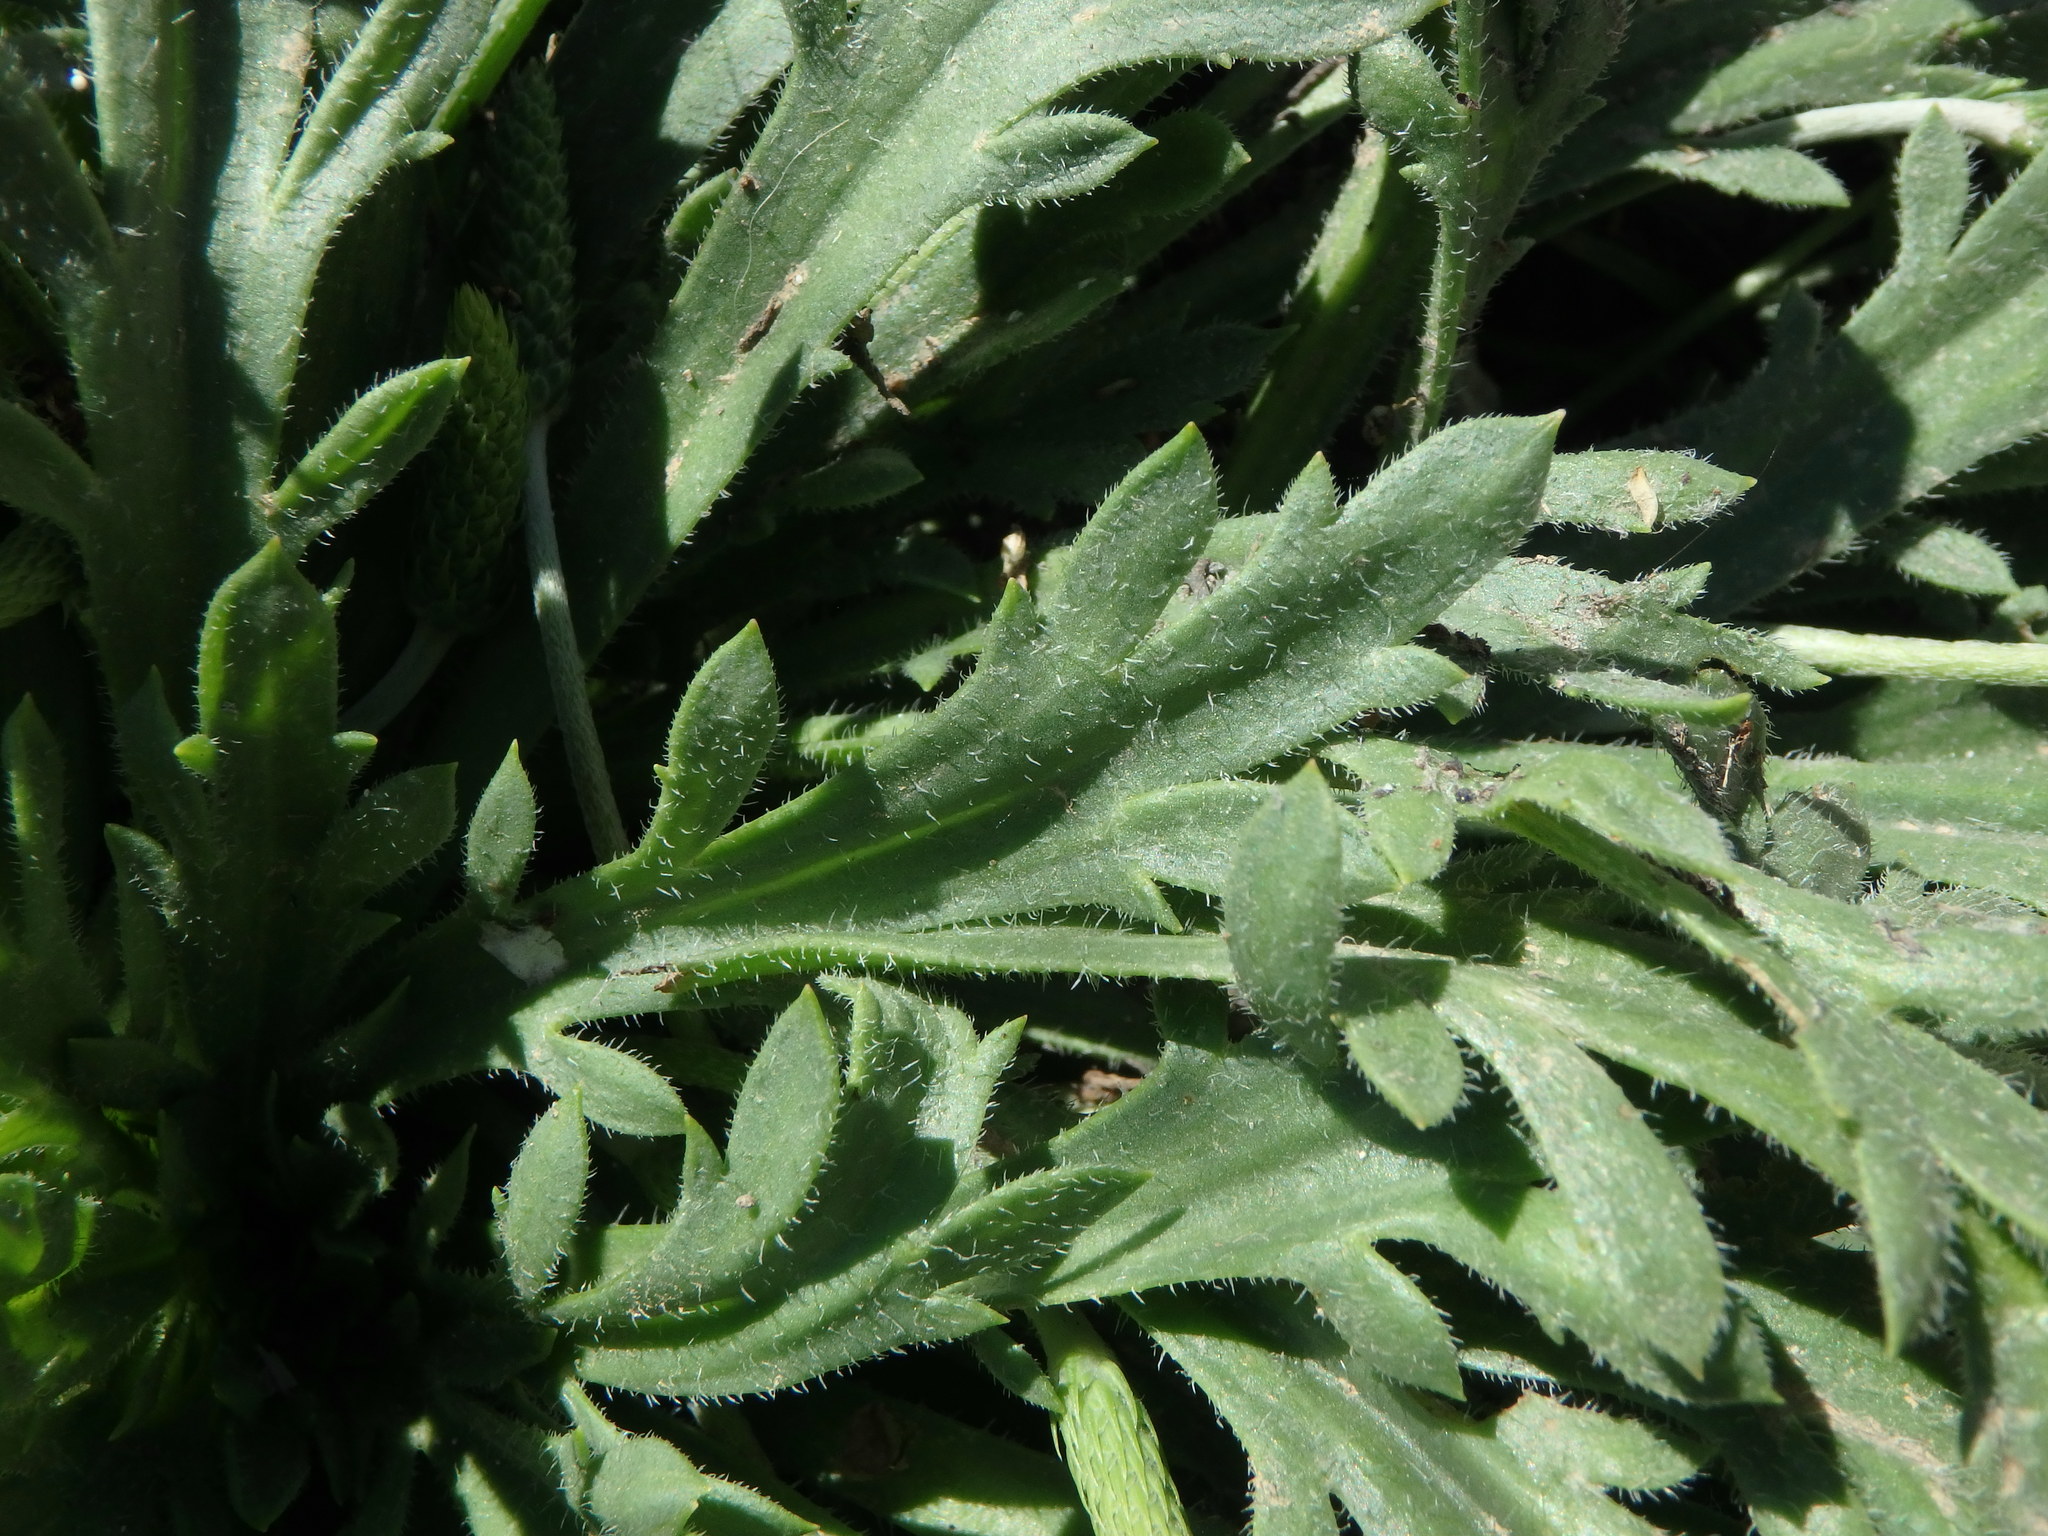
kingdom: Plantae
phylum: Tracheophyta
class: Magnoliopsida
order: Lamiales
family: Plantaginaceae
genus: Plantago
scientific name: Plantago coronopus
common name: Buck's-horn plantain
